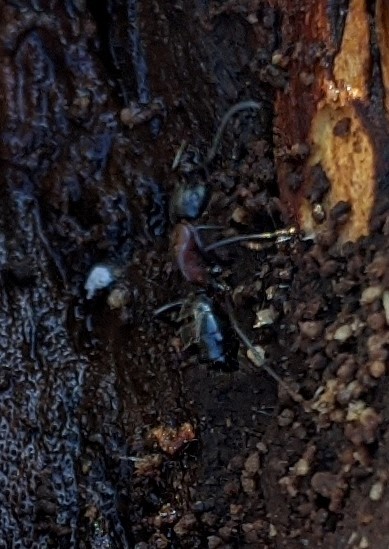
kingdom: Animalia
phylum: Arthropoda
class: Insecta
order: Hymenoptera
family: Formicidae
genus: Camponotus
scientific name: Camponotus novaeboracensis
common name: New york carpenter ant
